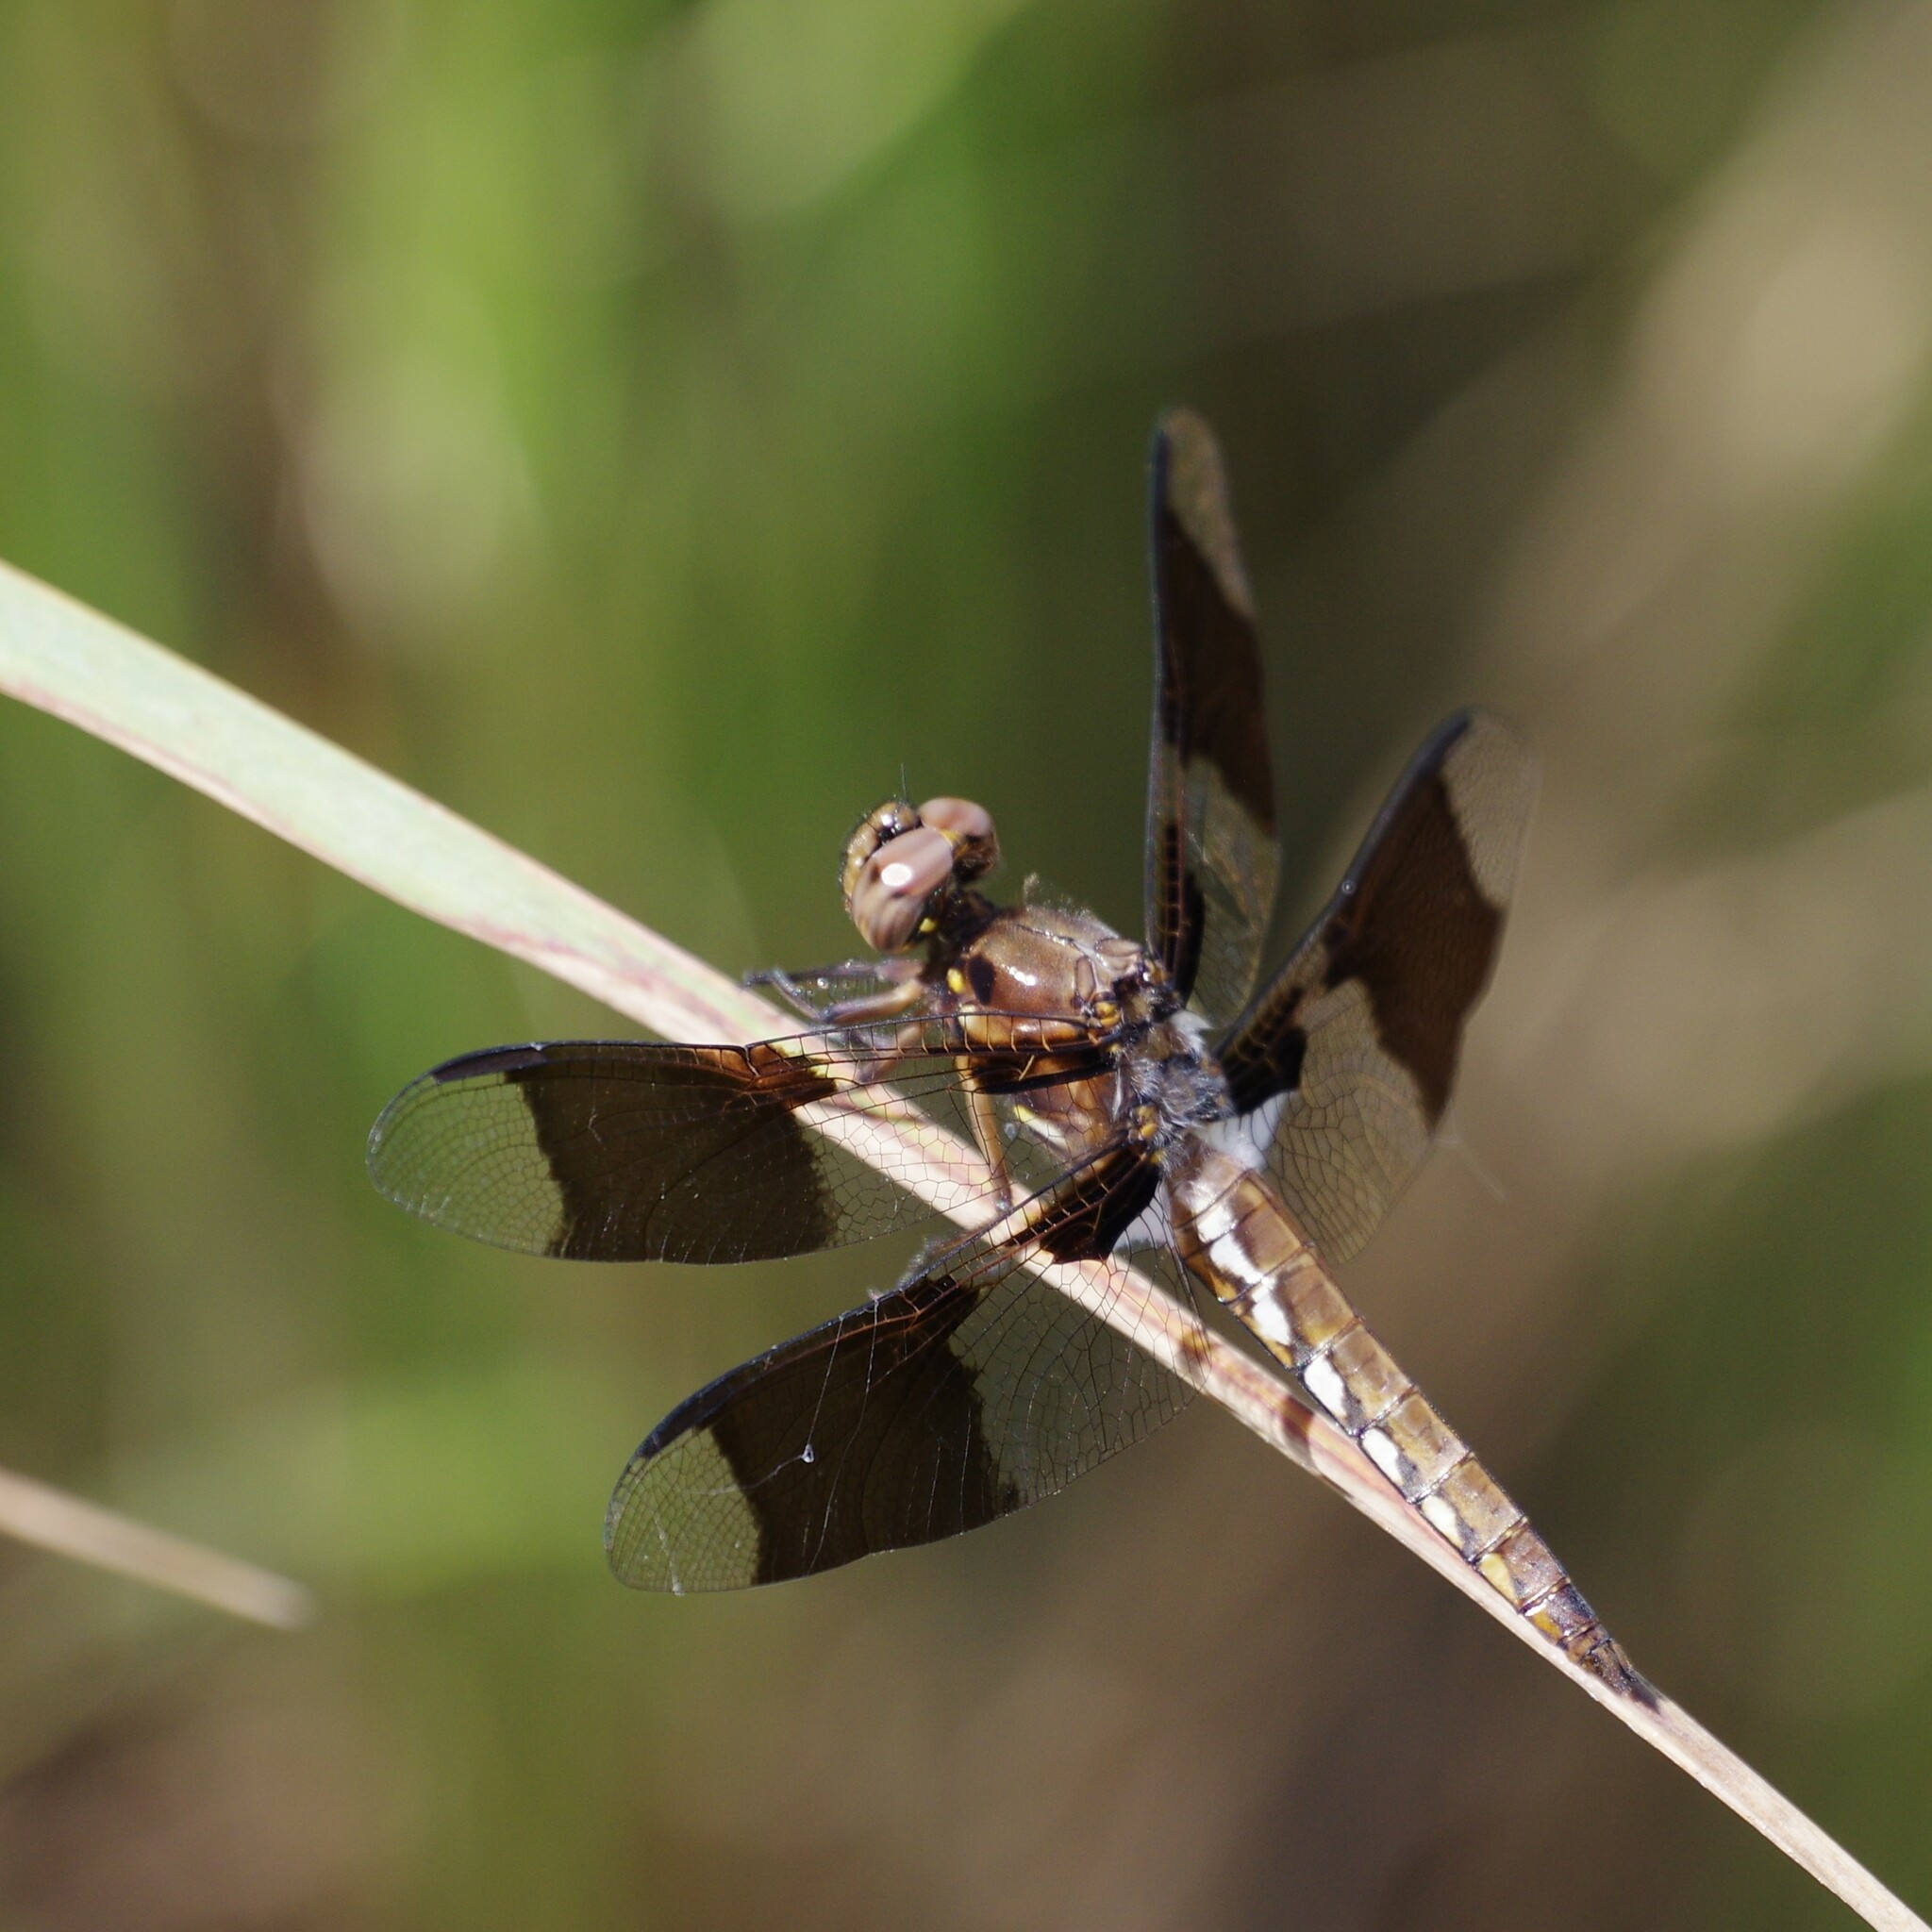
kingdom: Animalia
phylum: Arthropoda
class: Insecta
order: Odonata
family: Libellulidae
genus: Plathemis
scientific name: Plathemis lydia
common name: Common whitetail
